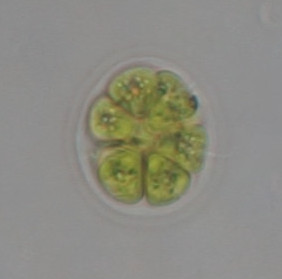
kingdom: Plantae
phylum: Chlorophyta
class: Chlorophyceae
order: Volvocales
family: Volvocaceae
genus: Pandorina
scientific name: Pandorina morum
